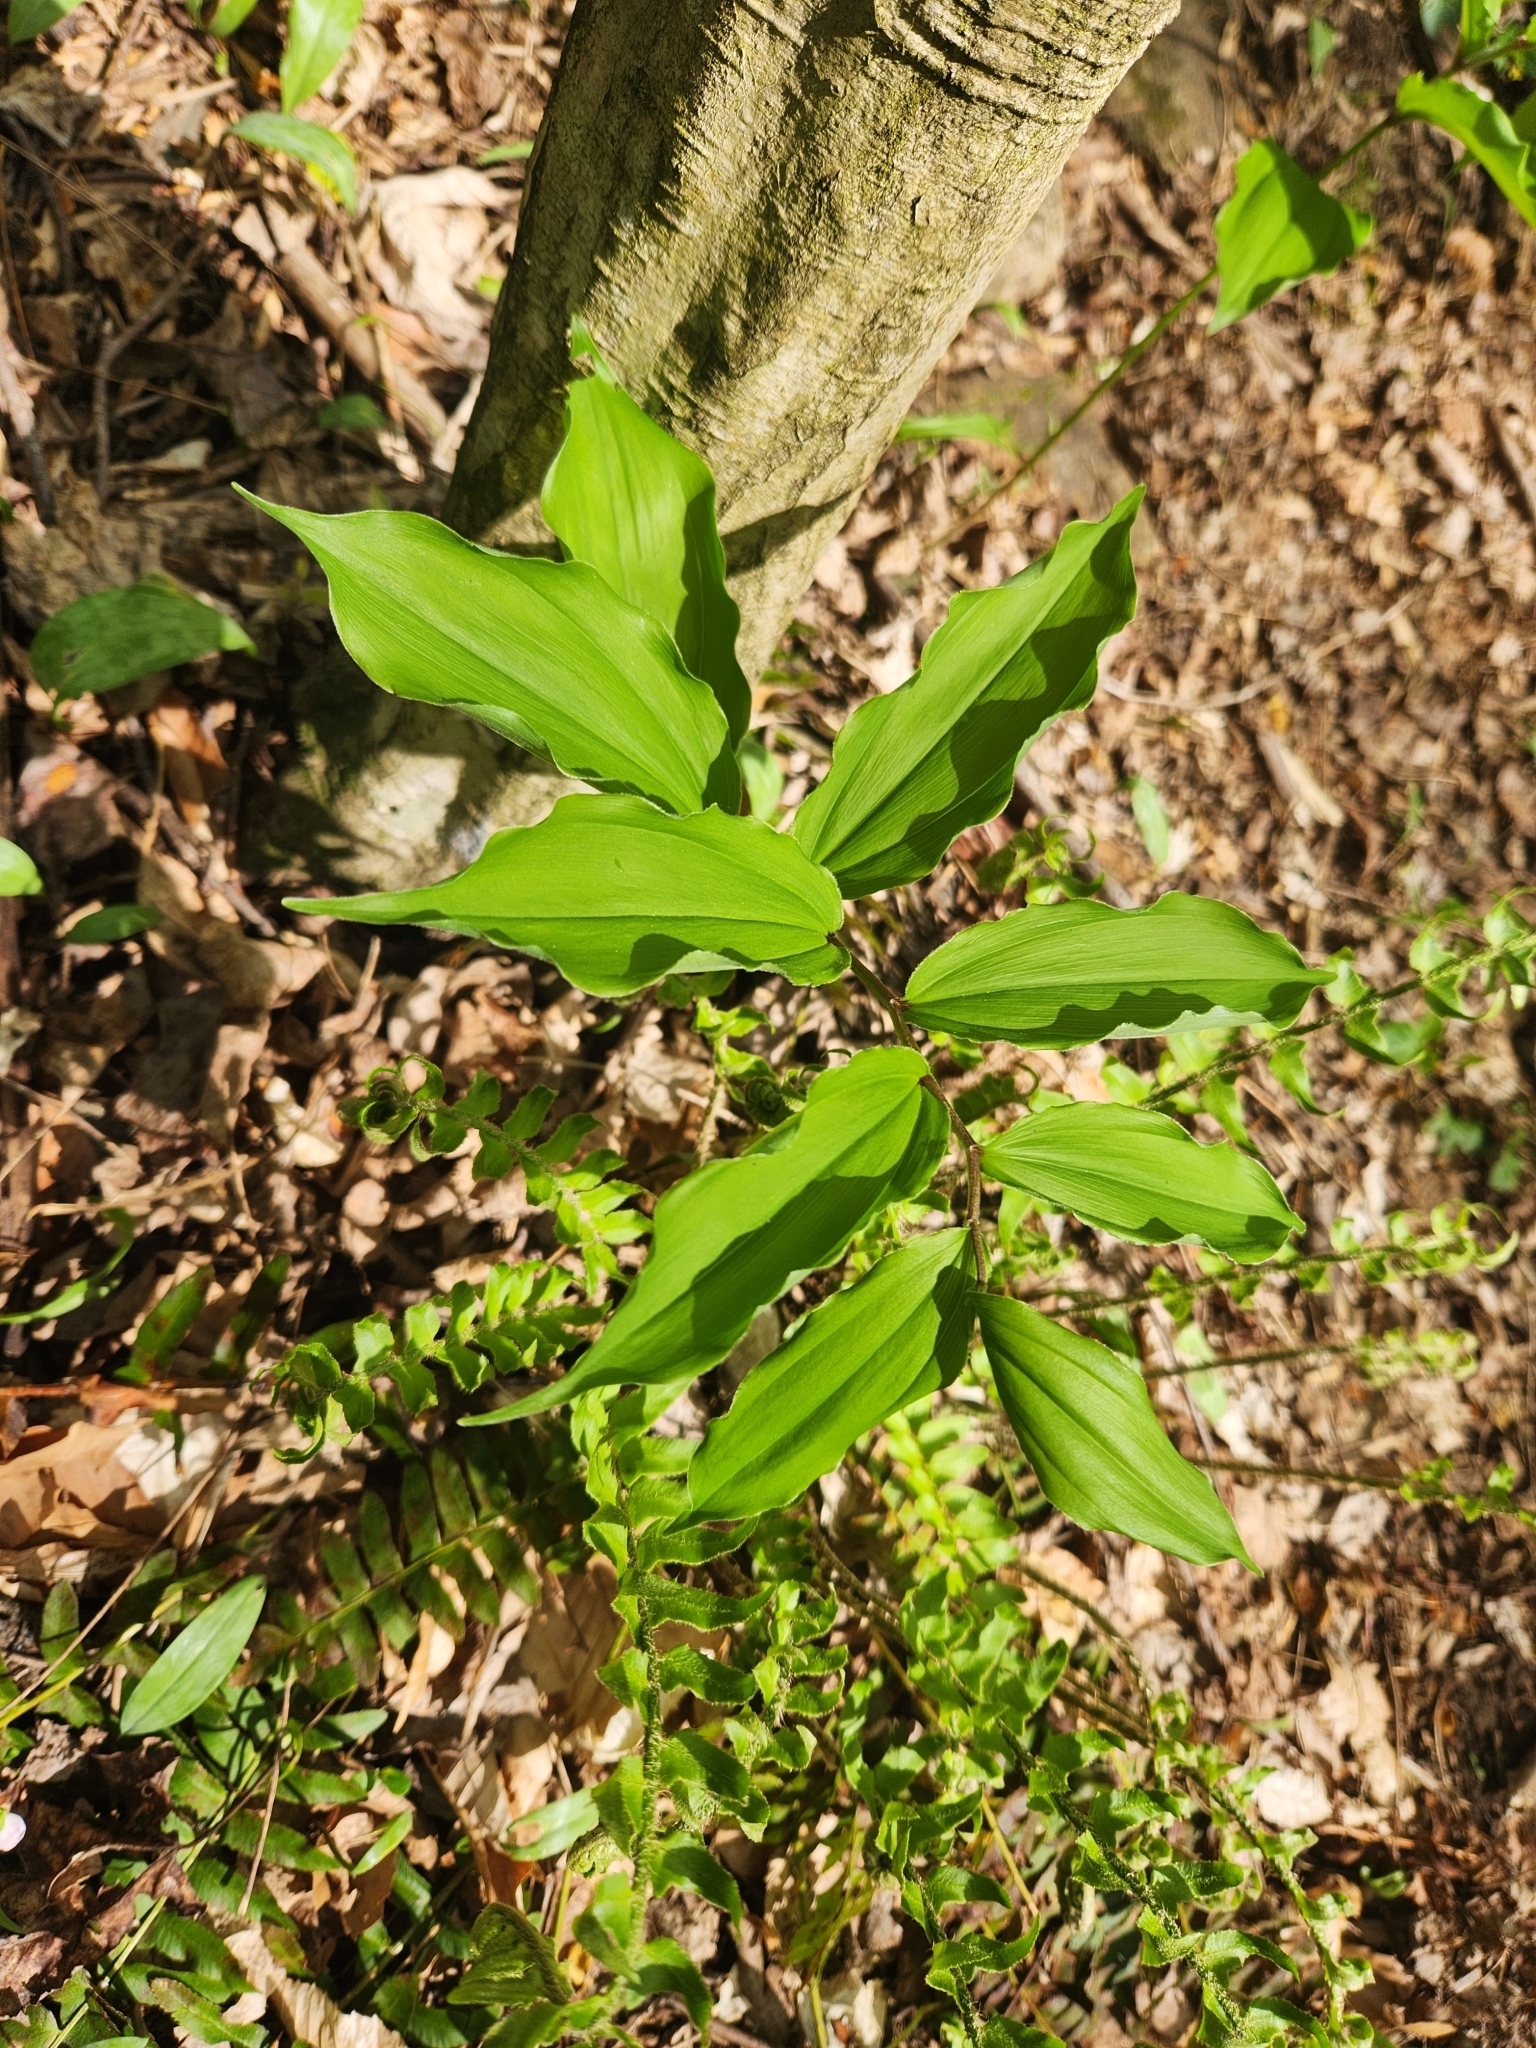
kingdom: Plantae
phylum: Tracheophyta
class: Liliopsida
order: Asparagales
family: Asparagaceae
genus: Maianthemum
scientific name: Maianthemum racemosum
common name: False spikenard
